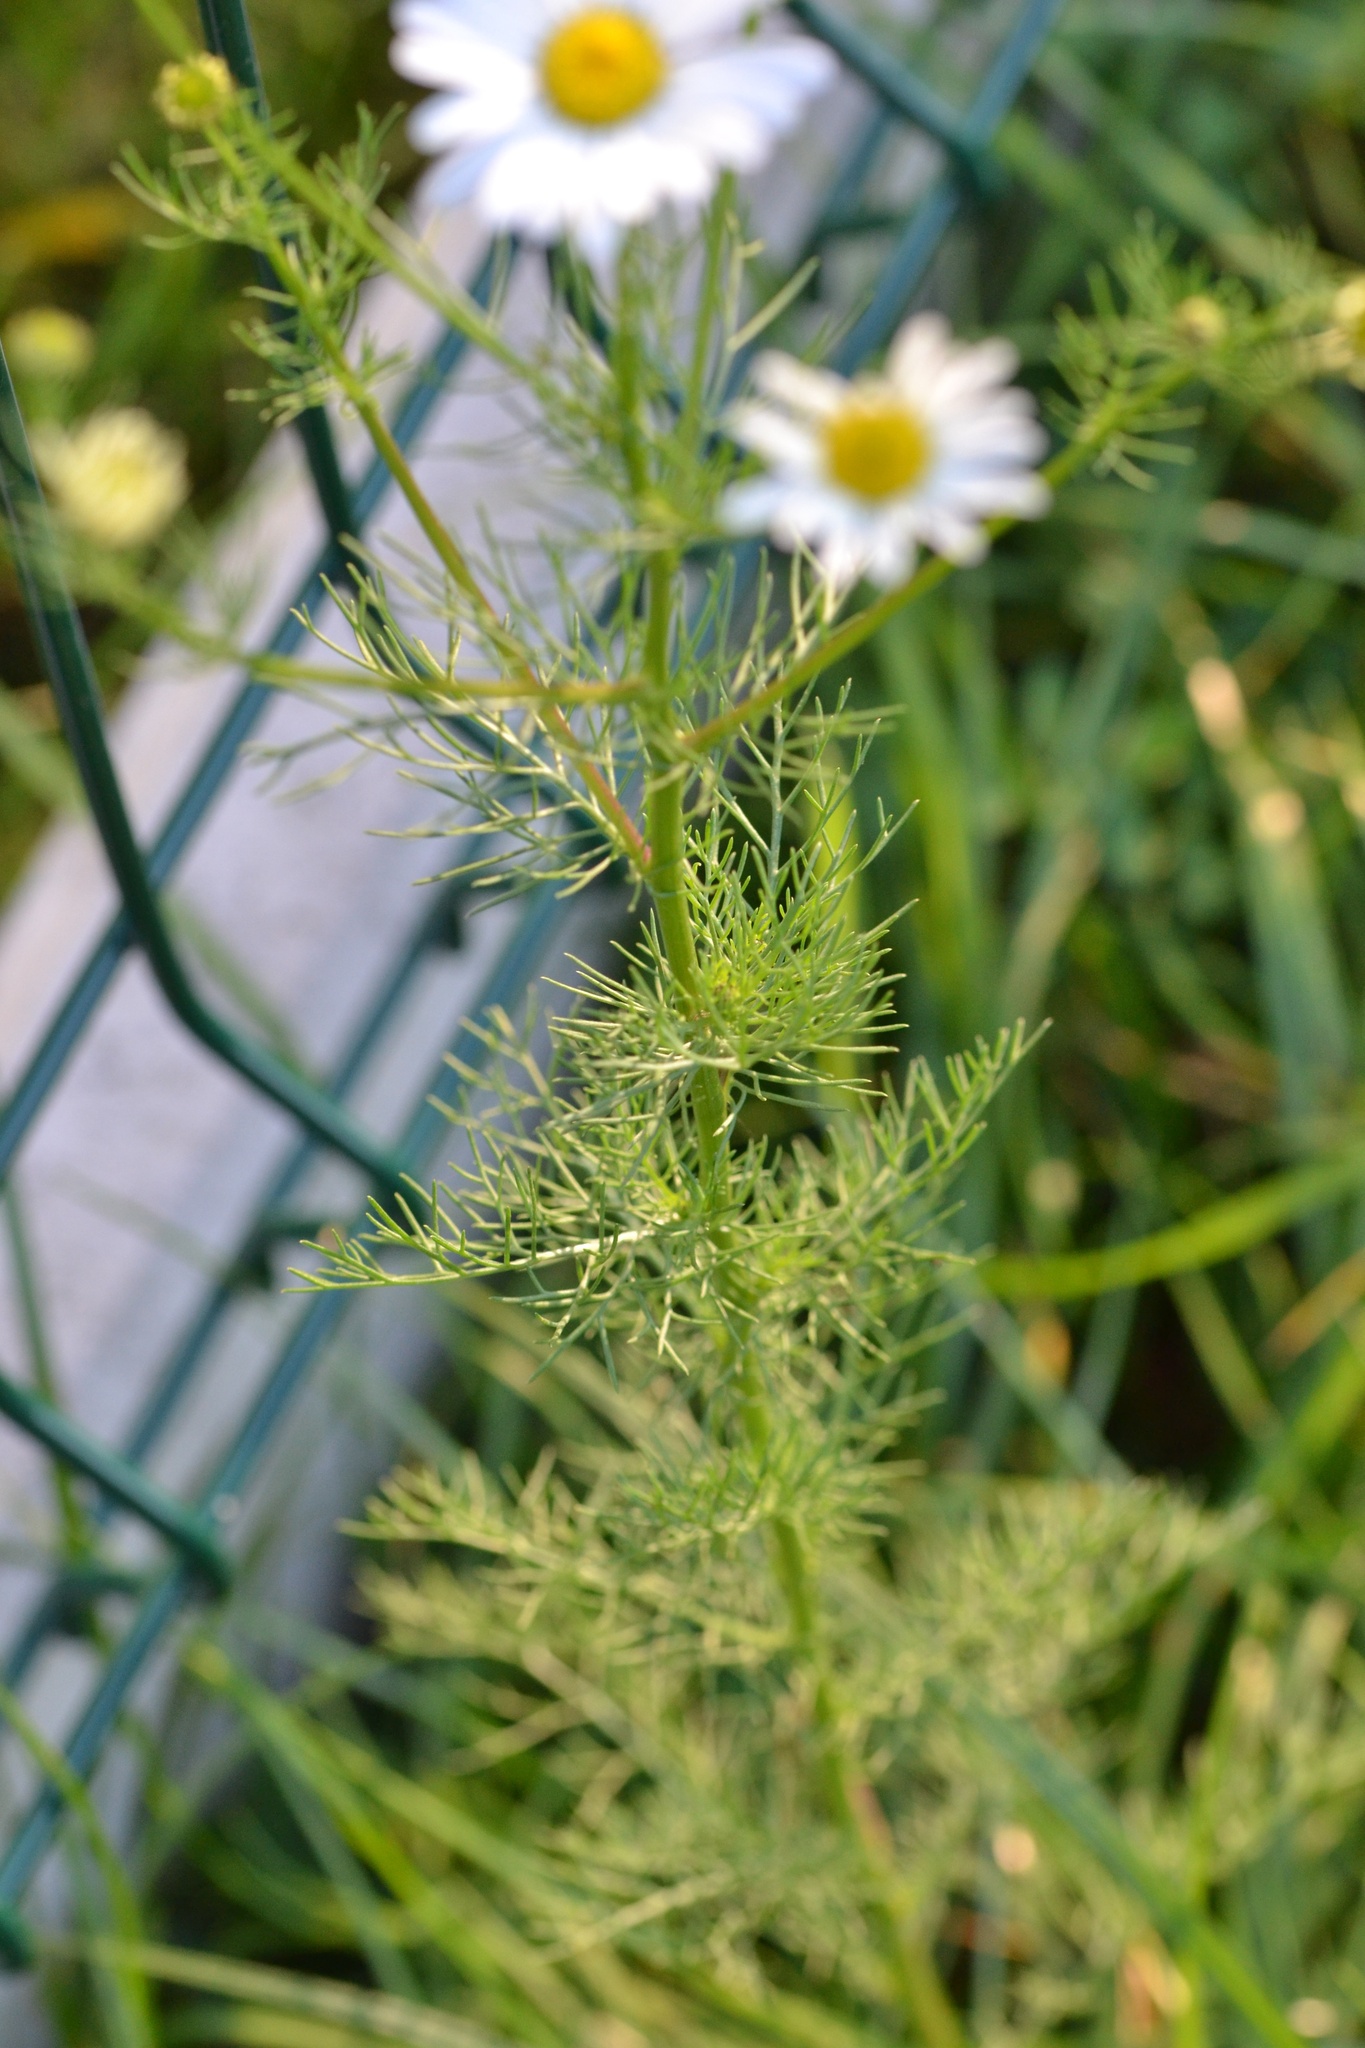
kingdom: Plantae
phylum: Tracheophyta
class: Magnoliopsida
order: Asterales
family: Asteraceae
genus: Tripleurospermum
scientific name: Tripleurospermum inodorum
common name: Scentless mayweed
